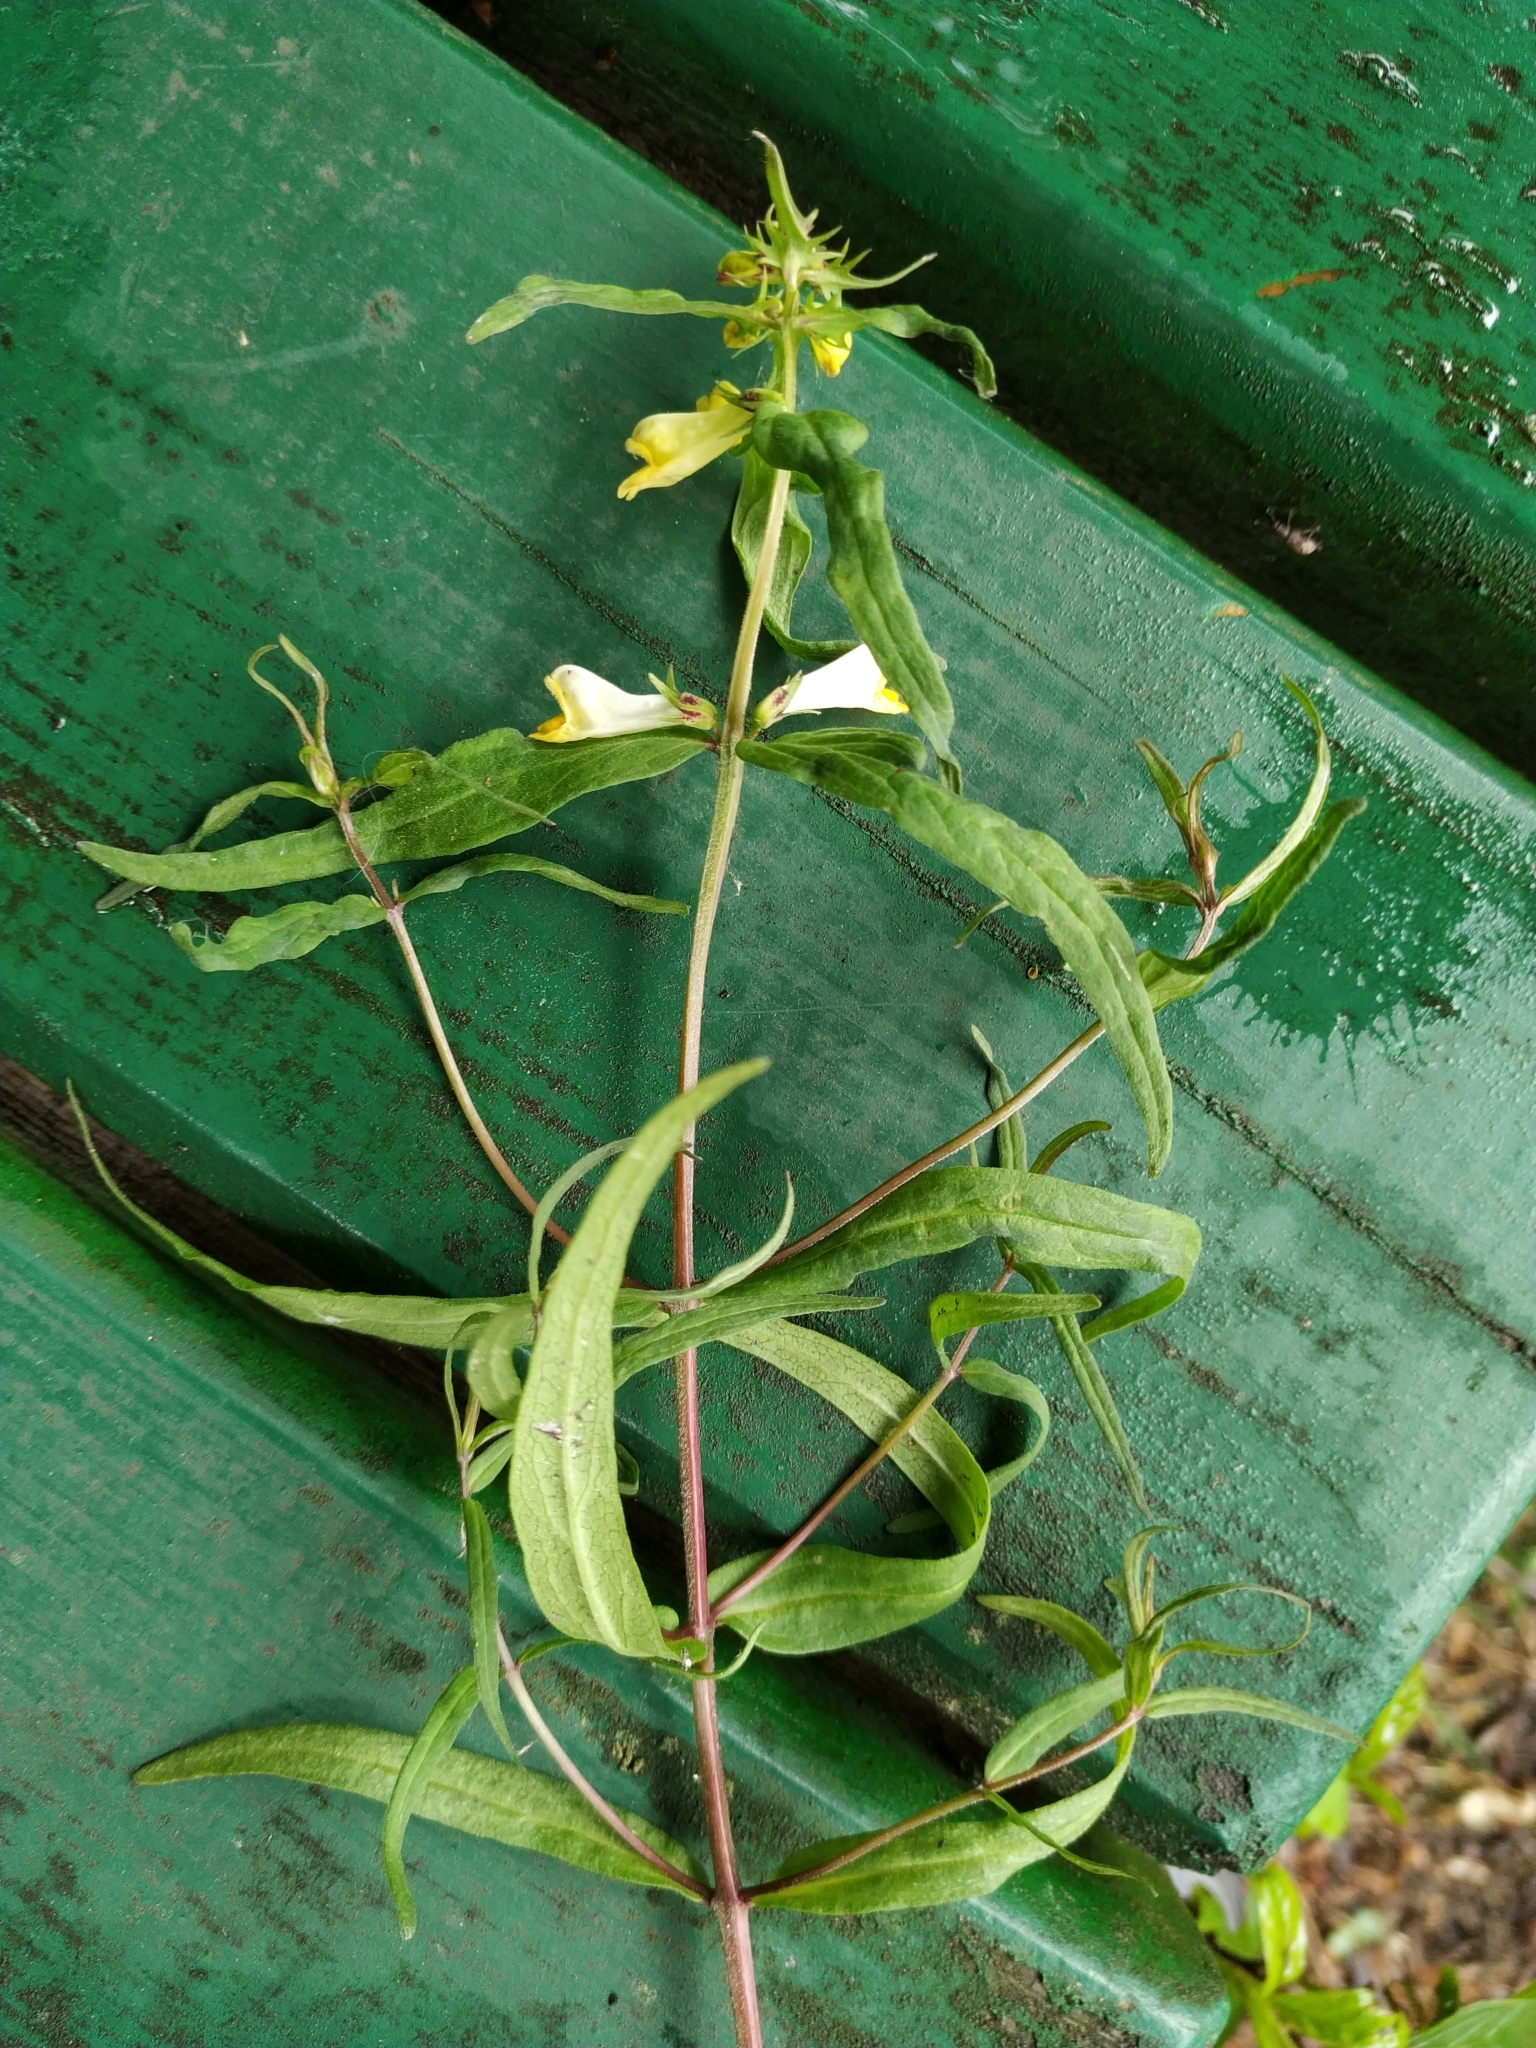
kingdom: Plantae
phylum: Tracheophyta
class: Magnoliopsida
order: Lamiales
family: Orobanchaceae
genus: Melampyrum
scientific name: Melampyrum pratense
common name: Common cow-wheat
